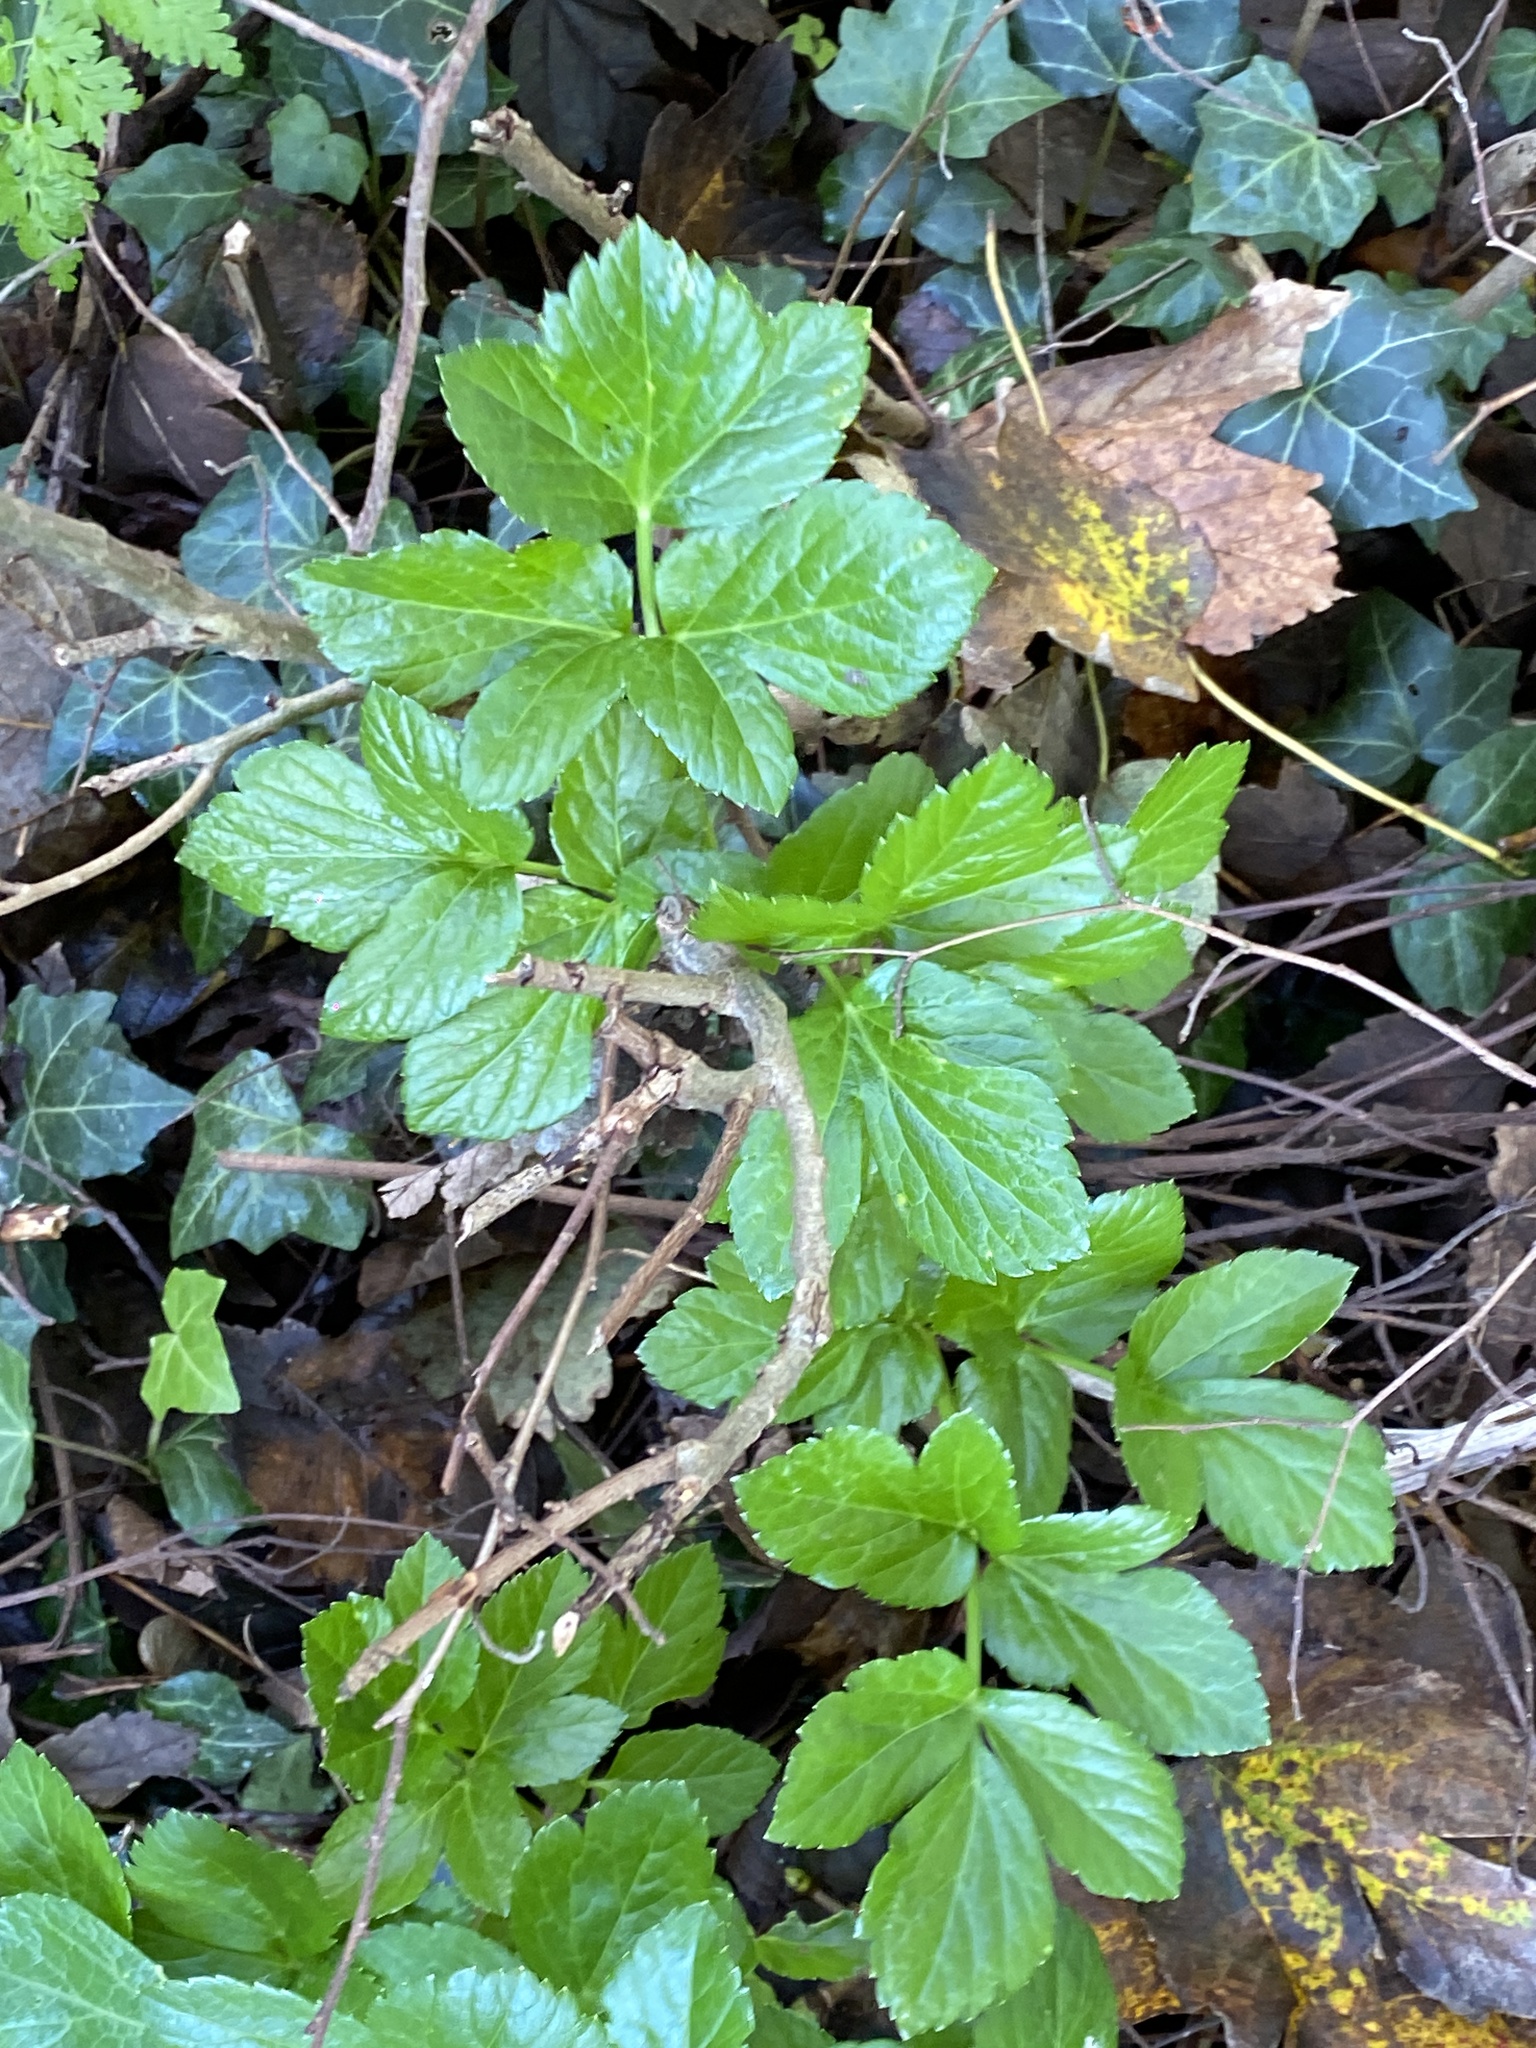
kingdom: Plantae
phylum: Tracheophyta
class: Magnoliopsida
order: Apiales
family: Apiaceae
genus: Smyrnium
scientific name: Smyrnium olusatrum
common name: Alexanders
